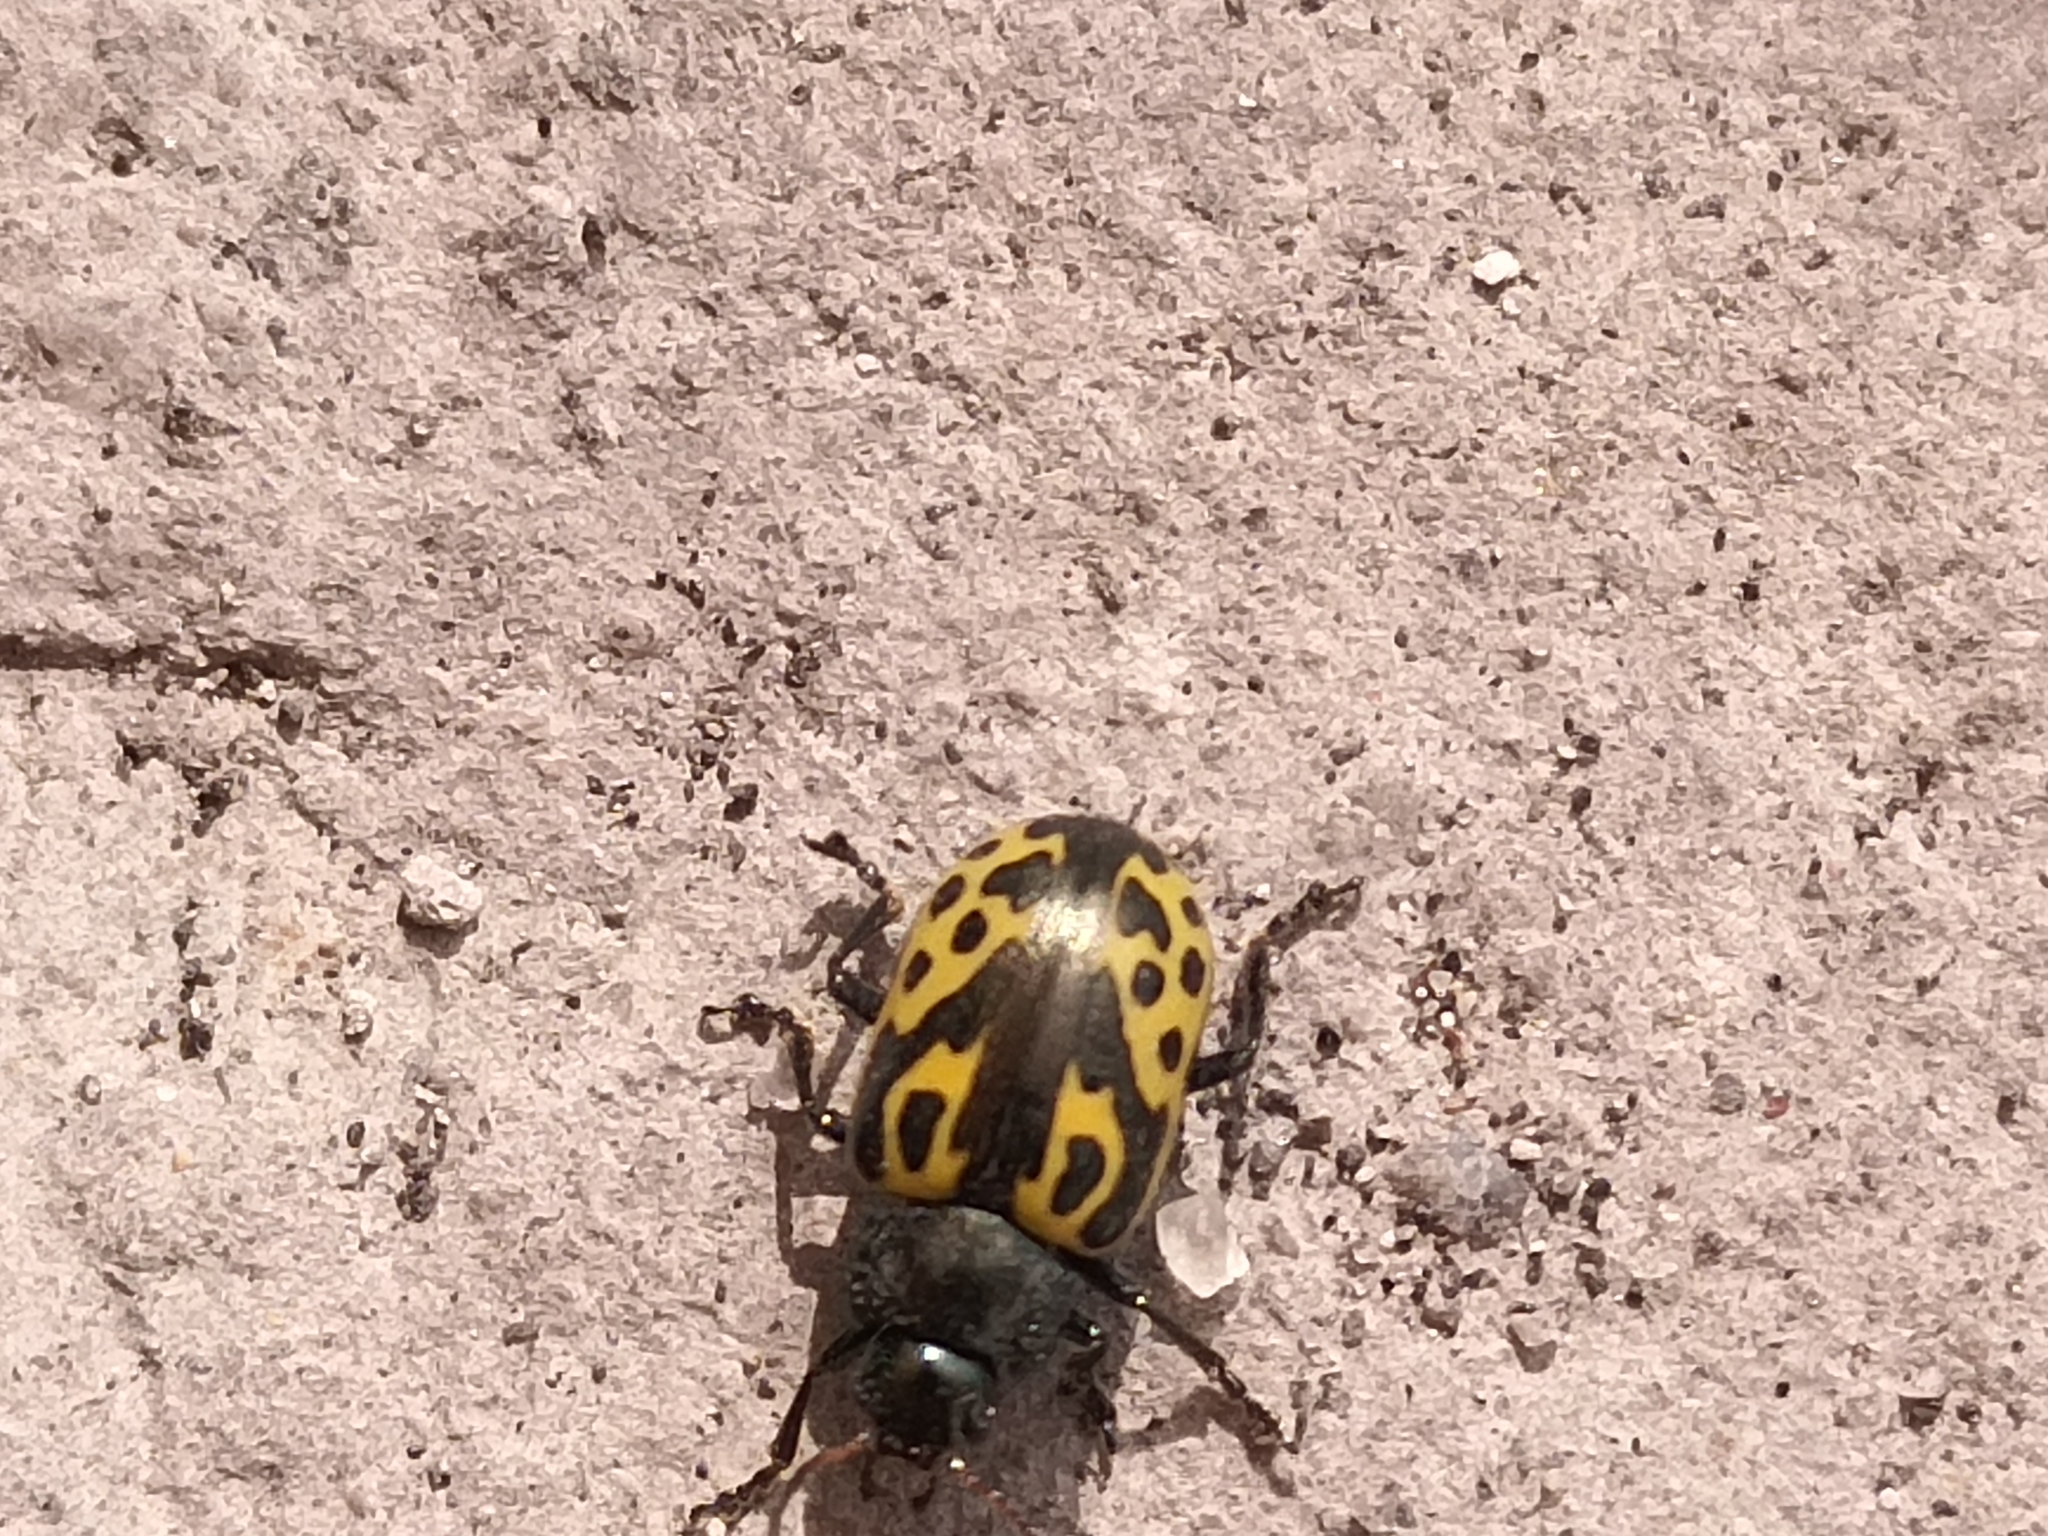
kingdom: Animalia
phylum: Arthropoda
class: Insecta
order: Coleoptera
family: Chrysomelidae
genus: Calligrapha
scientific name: Calligrapha
